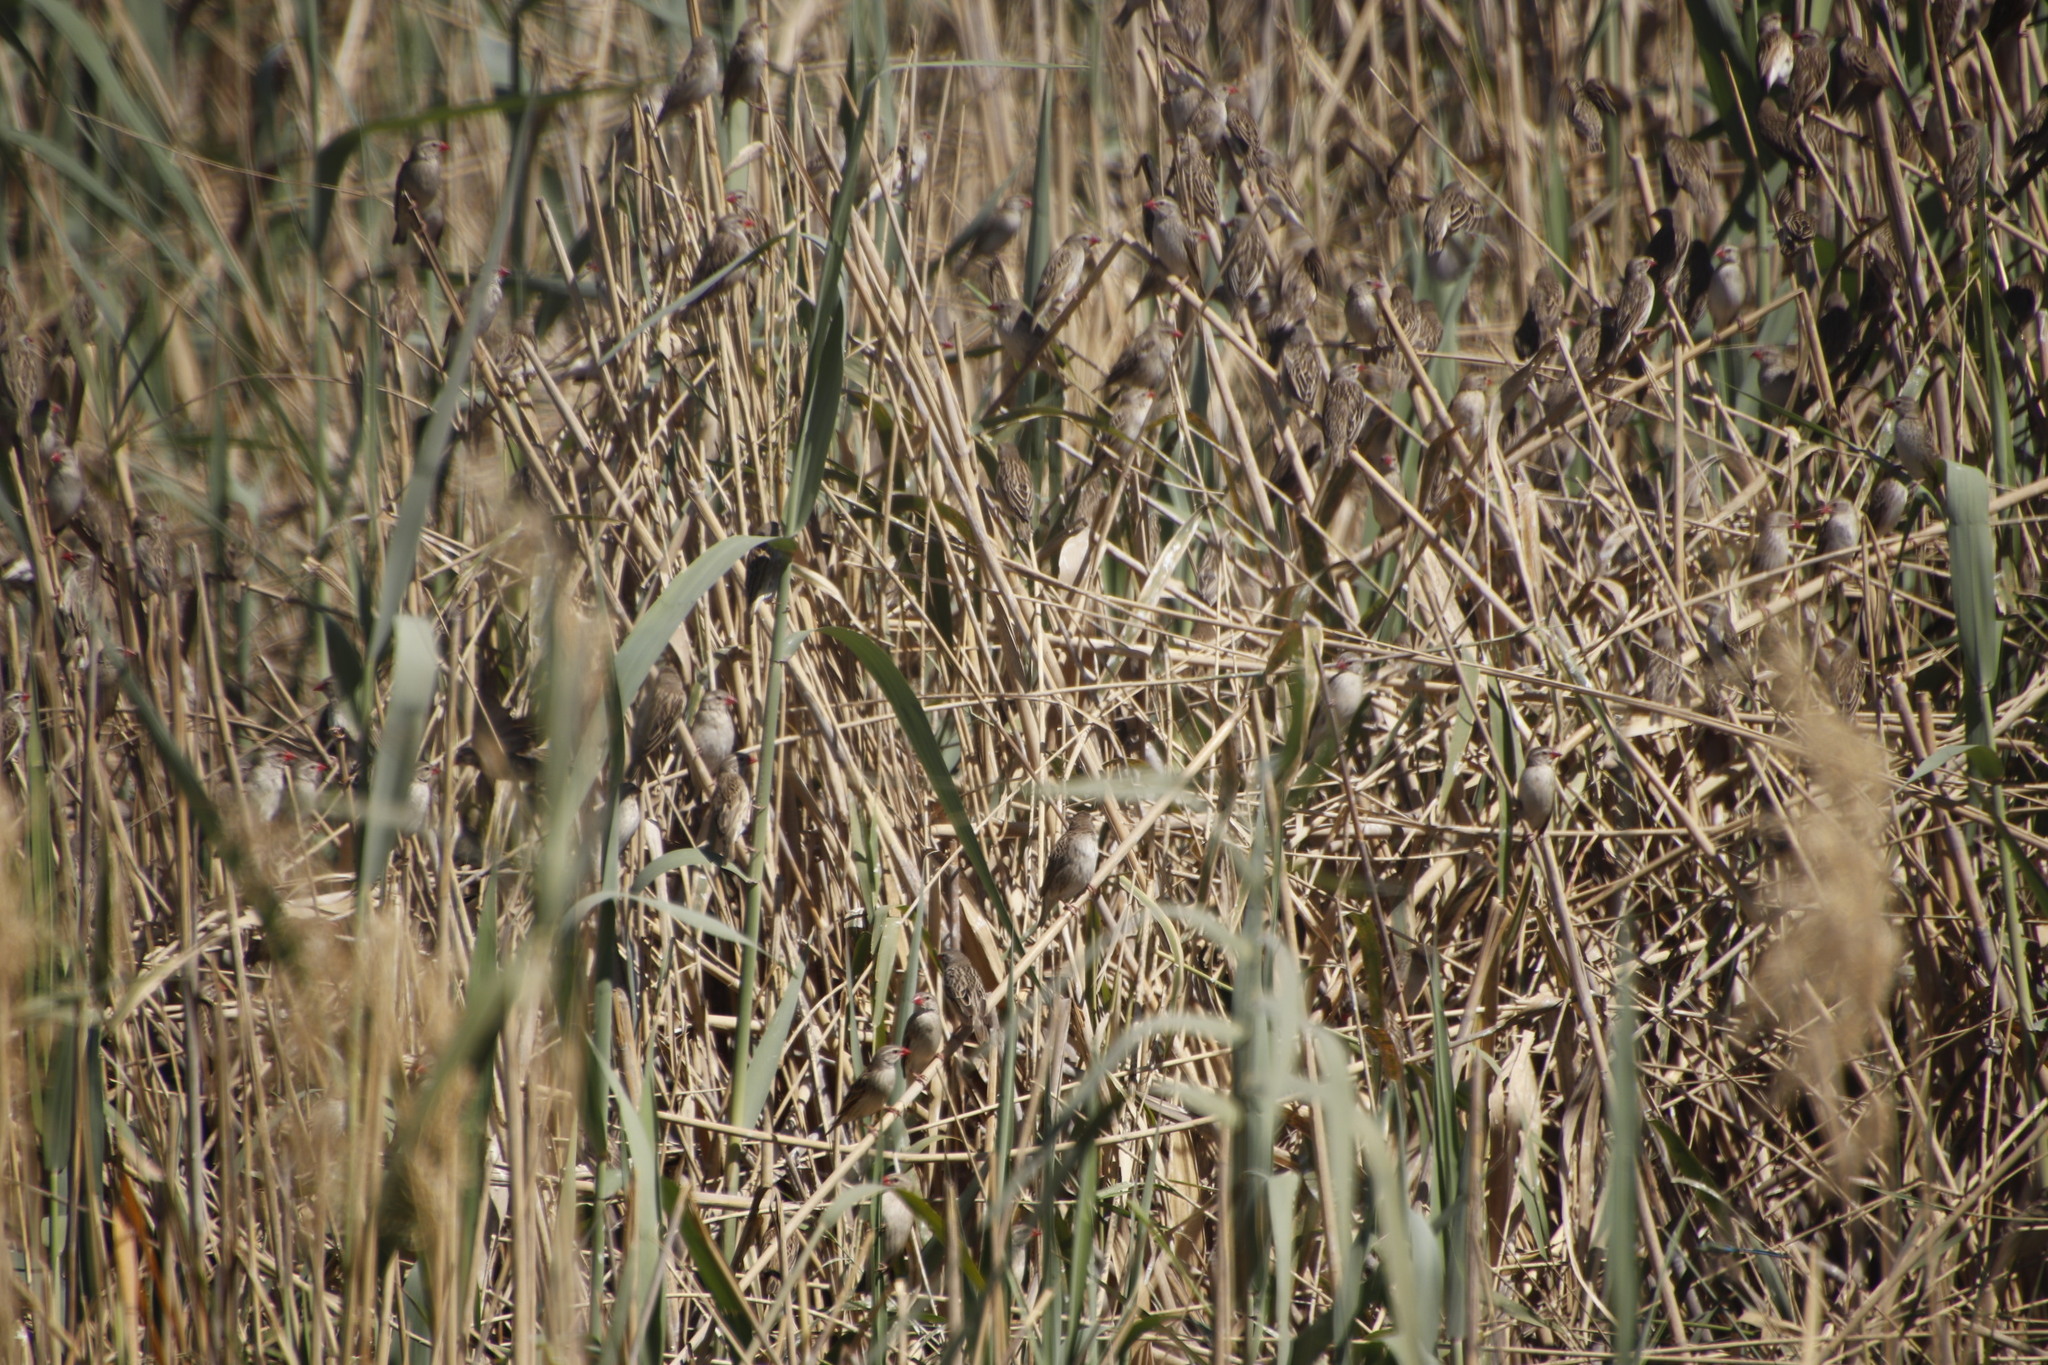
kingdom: Animalia
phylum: Chordata
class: Aves
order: Passeriformes
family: Ploceidae
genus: Quelea
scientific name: Quelea quelea
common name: Red-billed quelea
